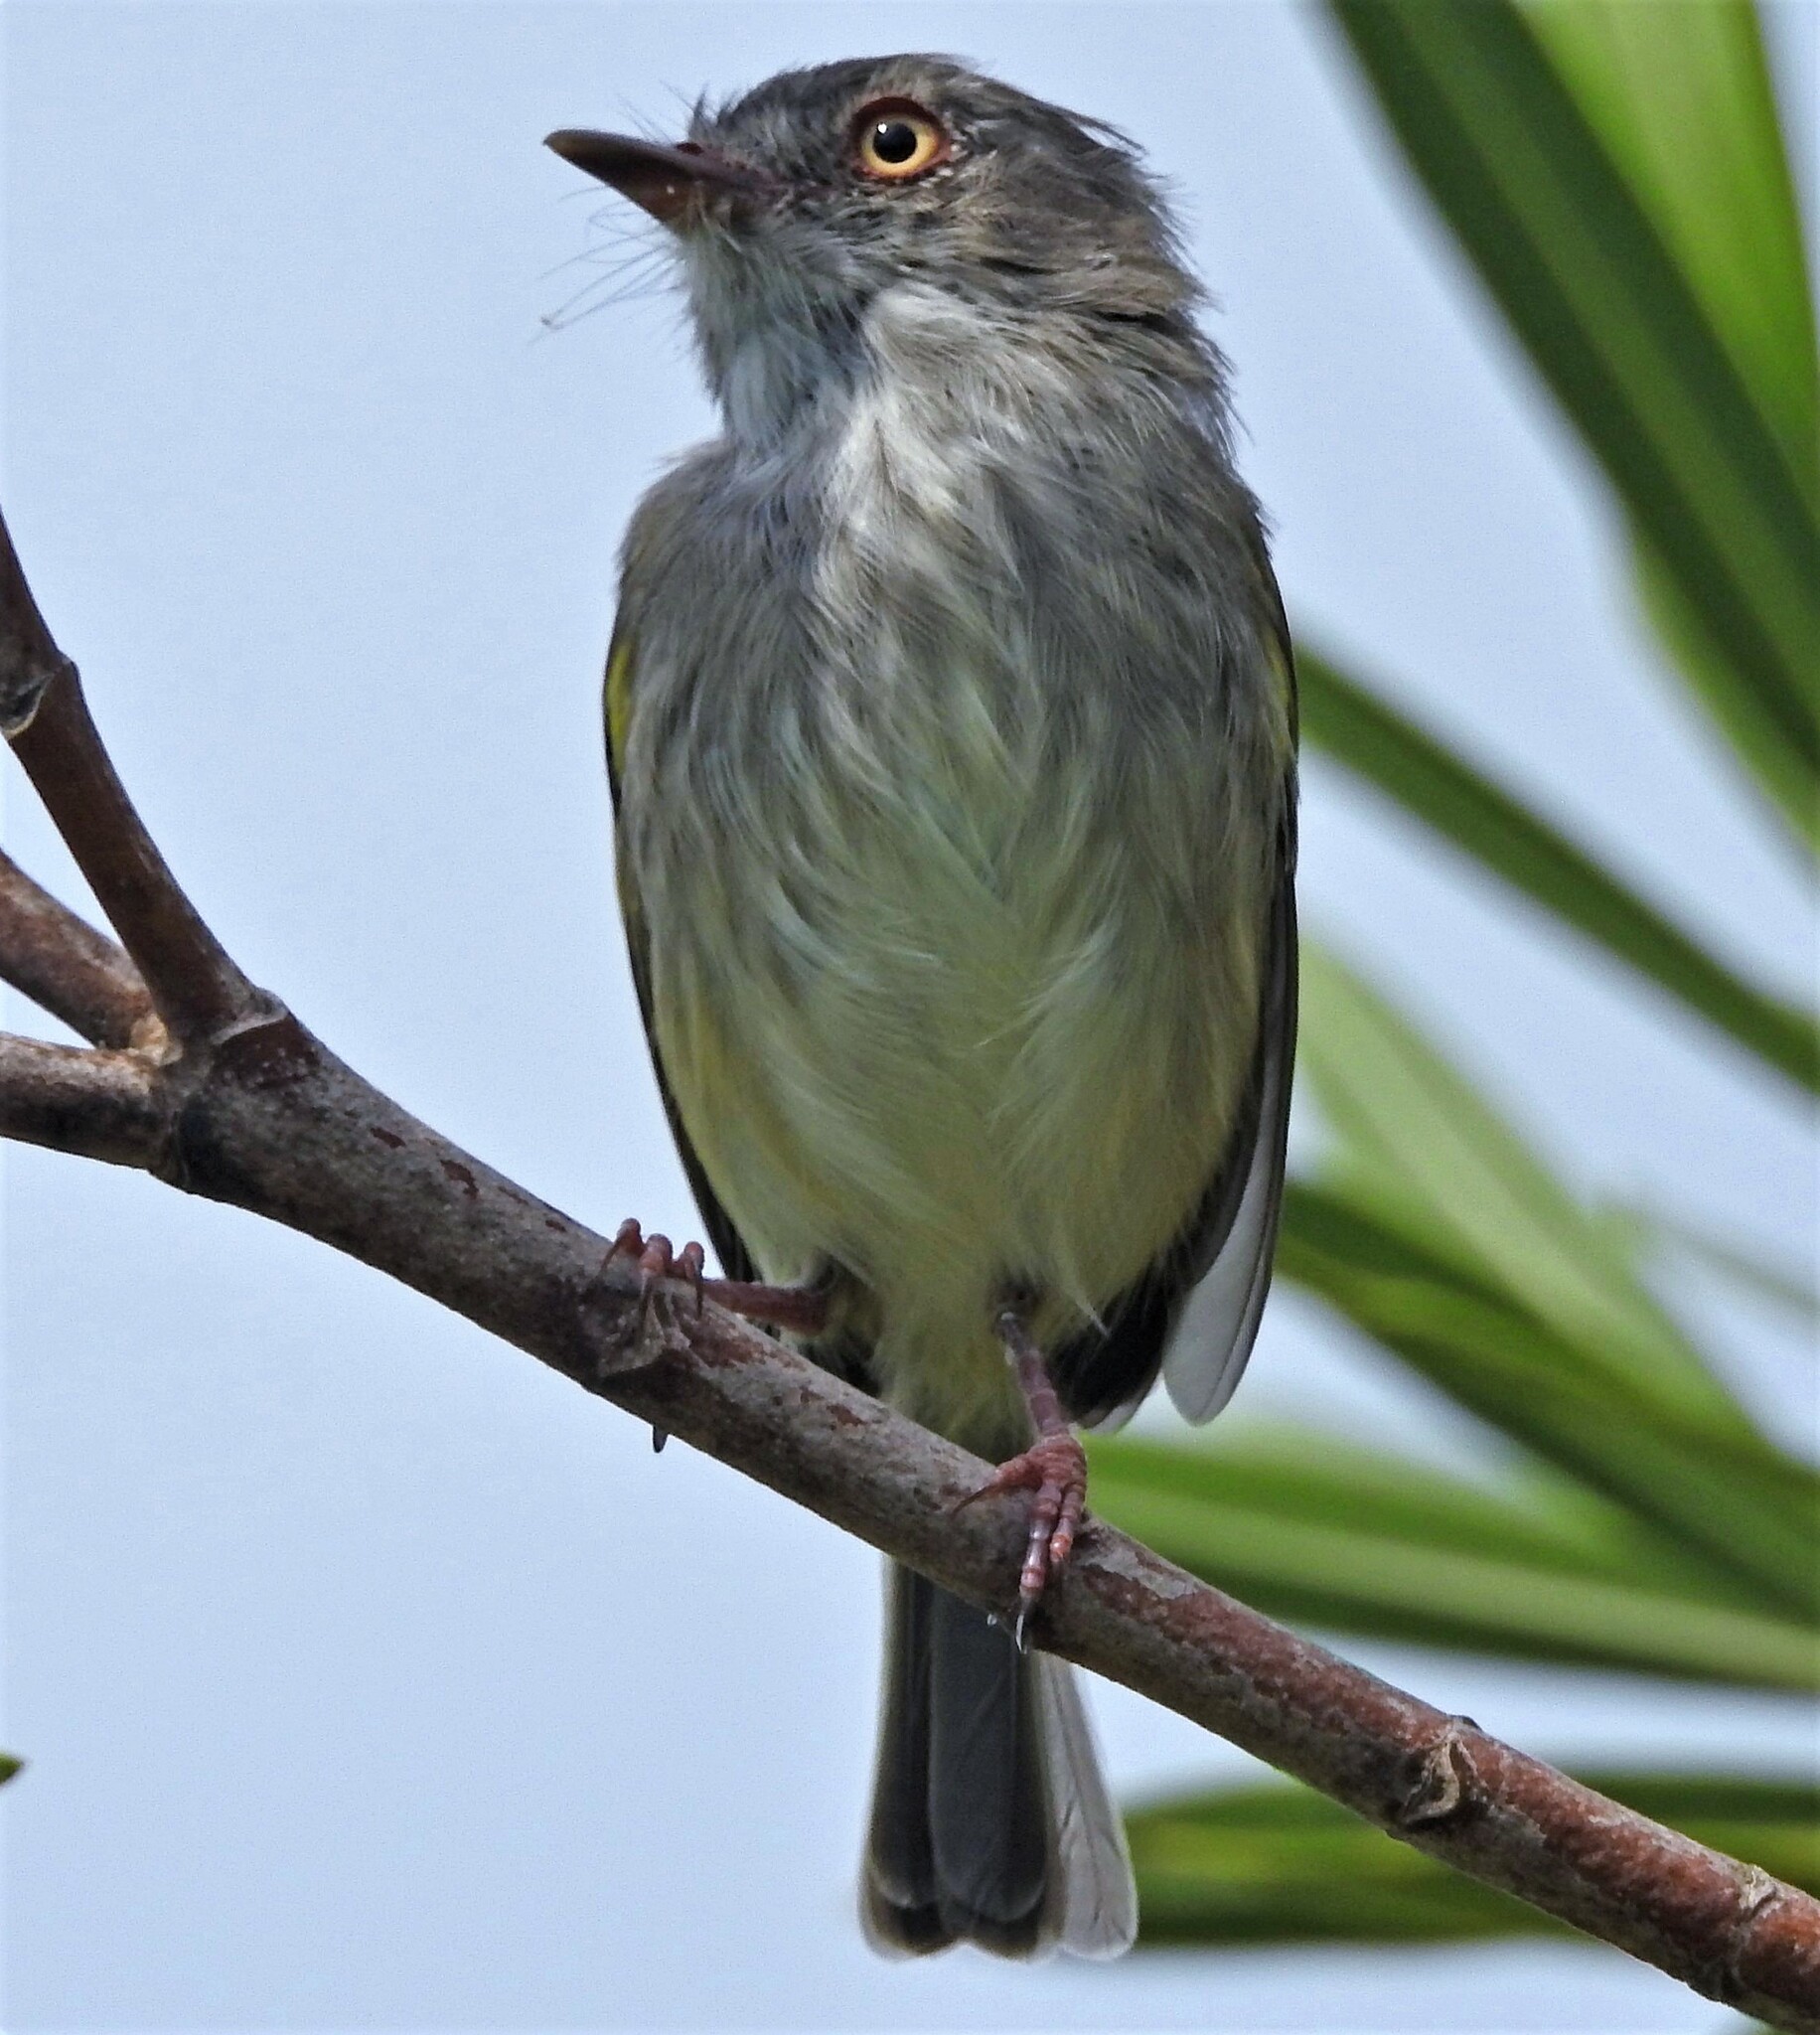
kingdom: Animalia
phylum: Chordata
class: Aves
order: Passeriformes
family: Tyrannidae
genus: Hemitriccus
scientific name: Hemitriccus margaritaceiventer
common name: Pearly-vented tody-tyrant
